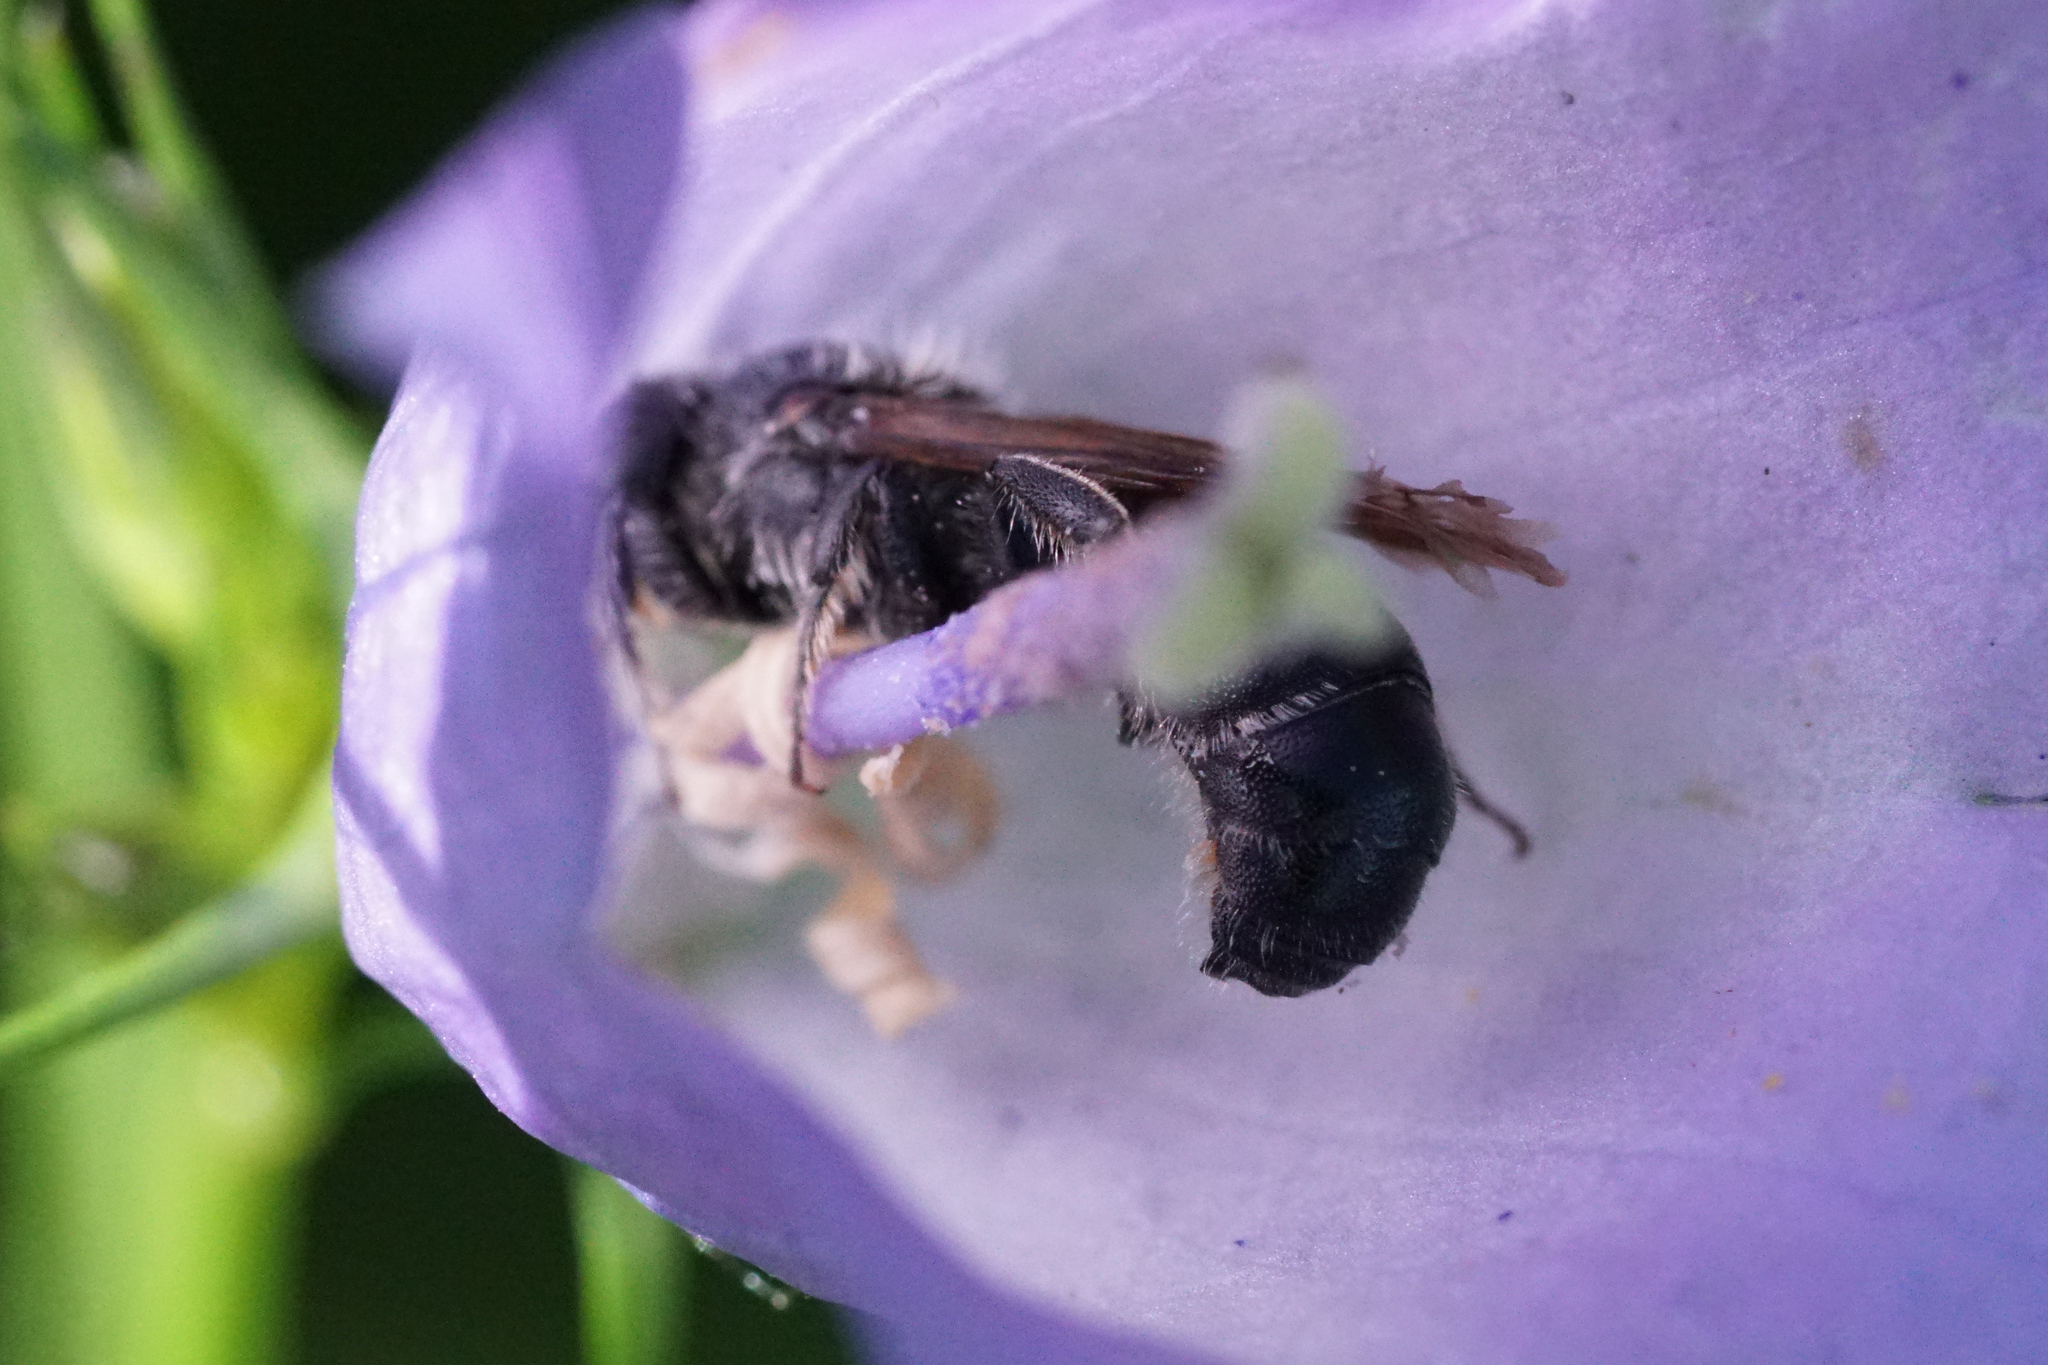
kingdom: Animalia
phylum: Arthropoda
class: Insecta
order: Hymenoptera
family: Megachilidae
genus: Chelostoma
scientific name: Chelostoma rapunculi
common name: Rampion scissor bee
